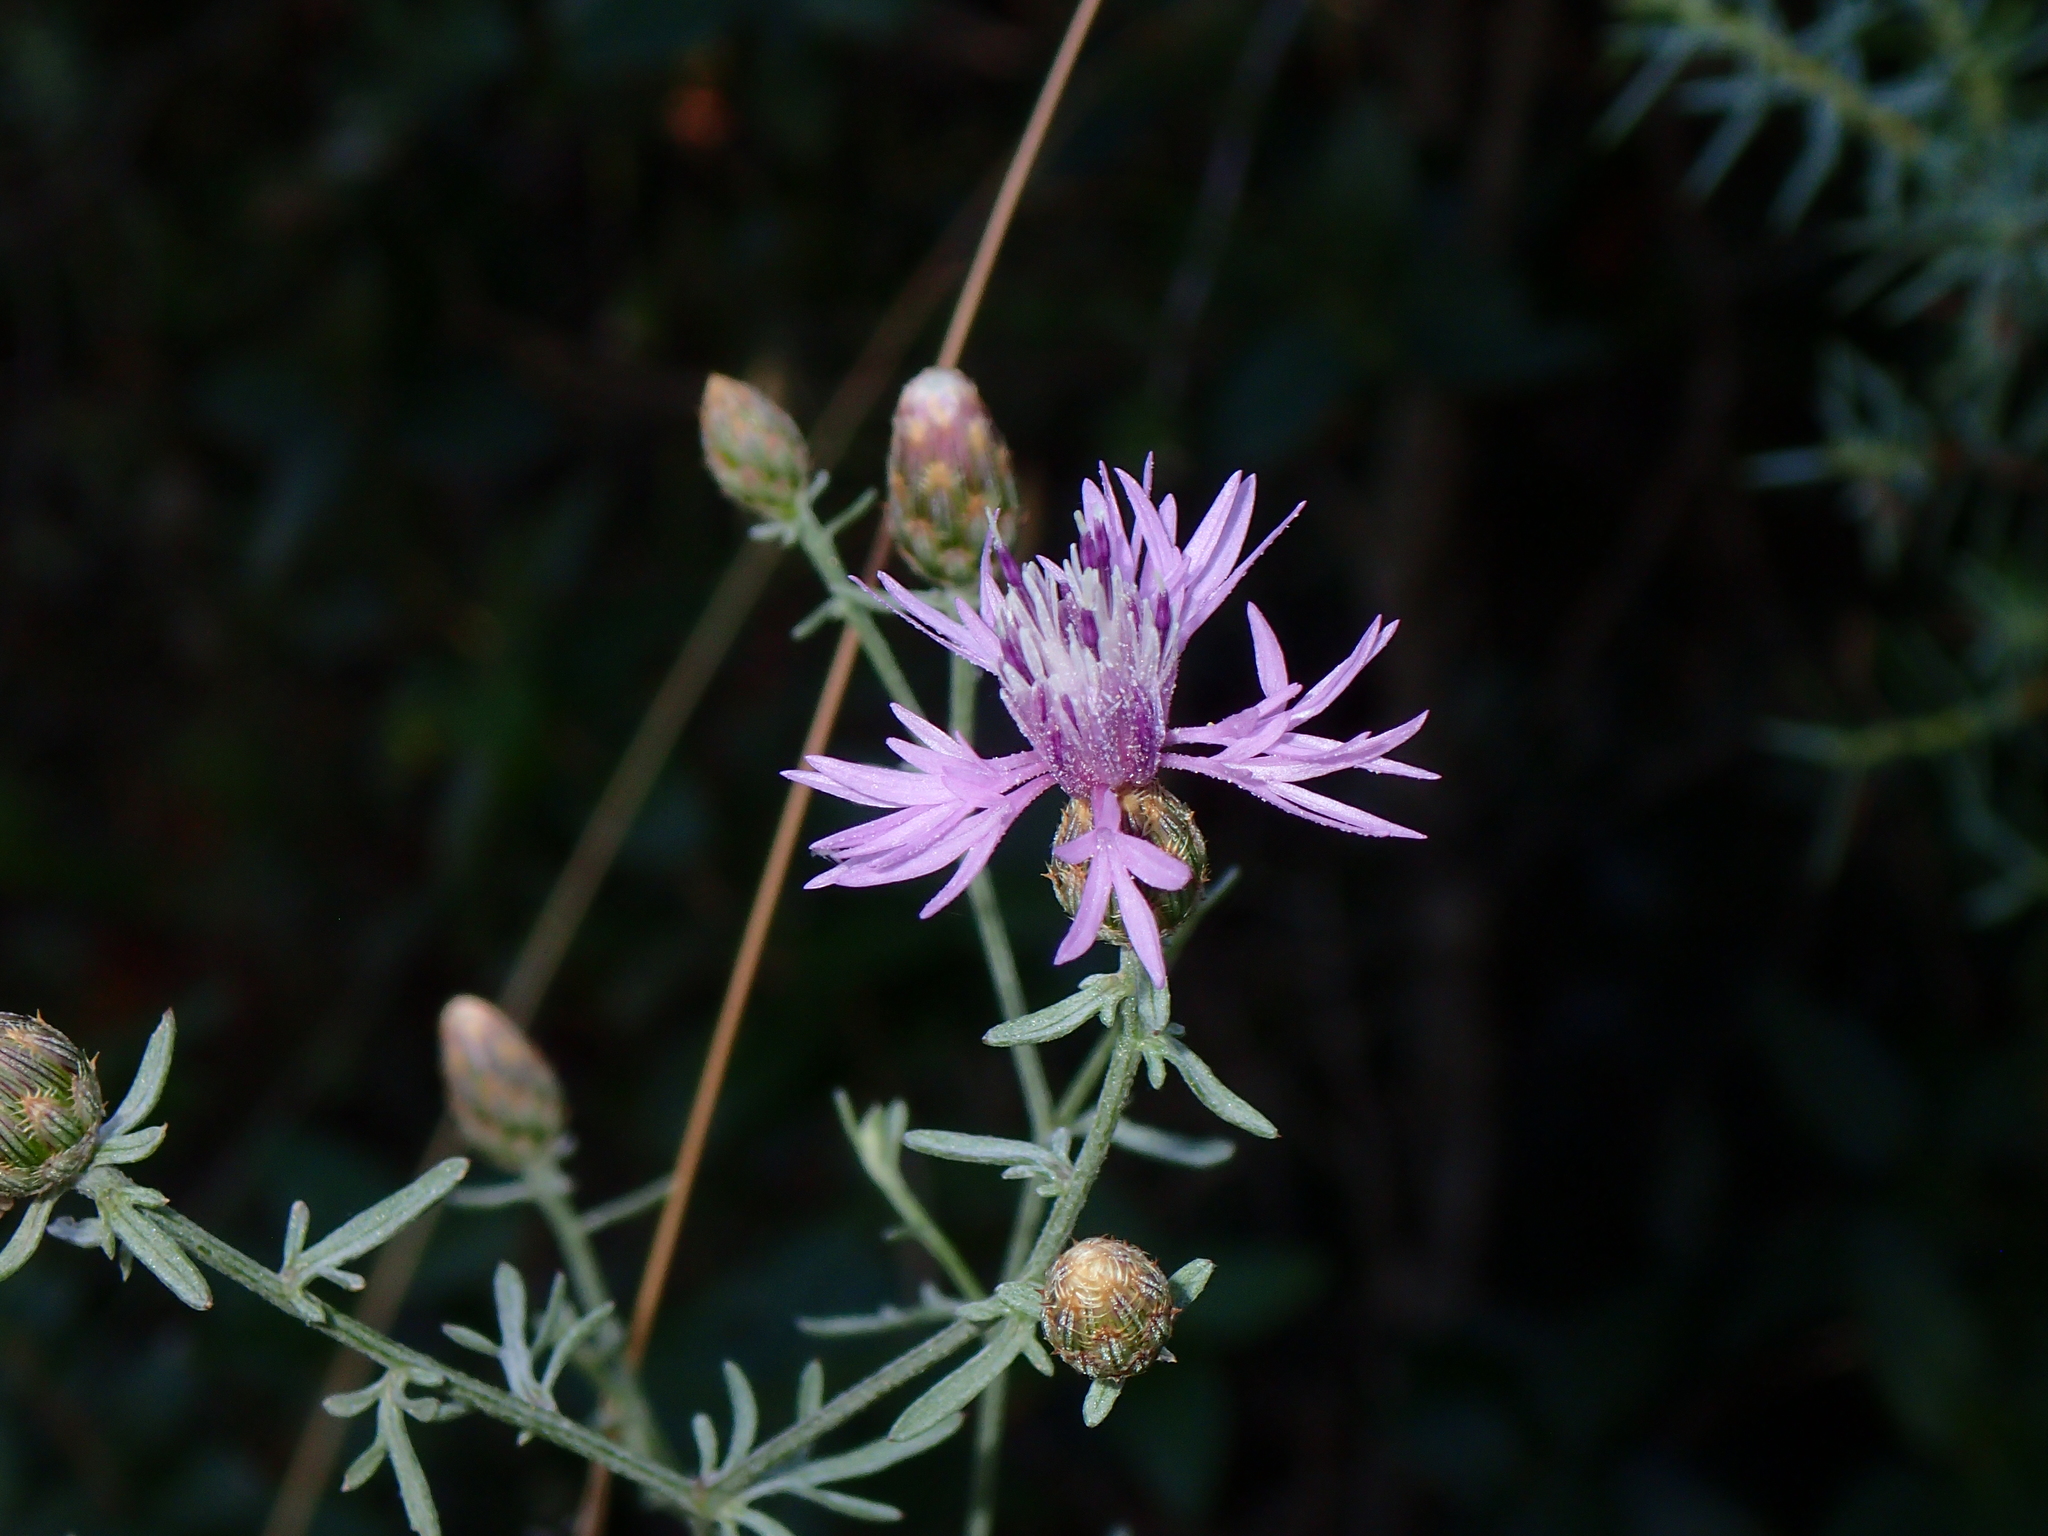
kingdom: Plantae
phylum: Tracheophyta
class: Magnoliopsida
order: Asterales
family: Asteraceae
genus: Centaurea
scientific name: Centaurea paniculata
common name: Jersey knapweed
